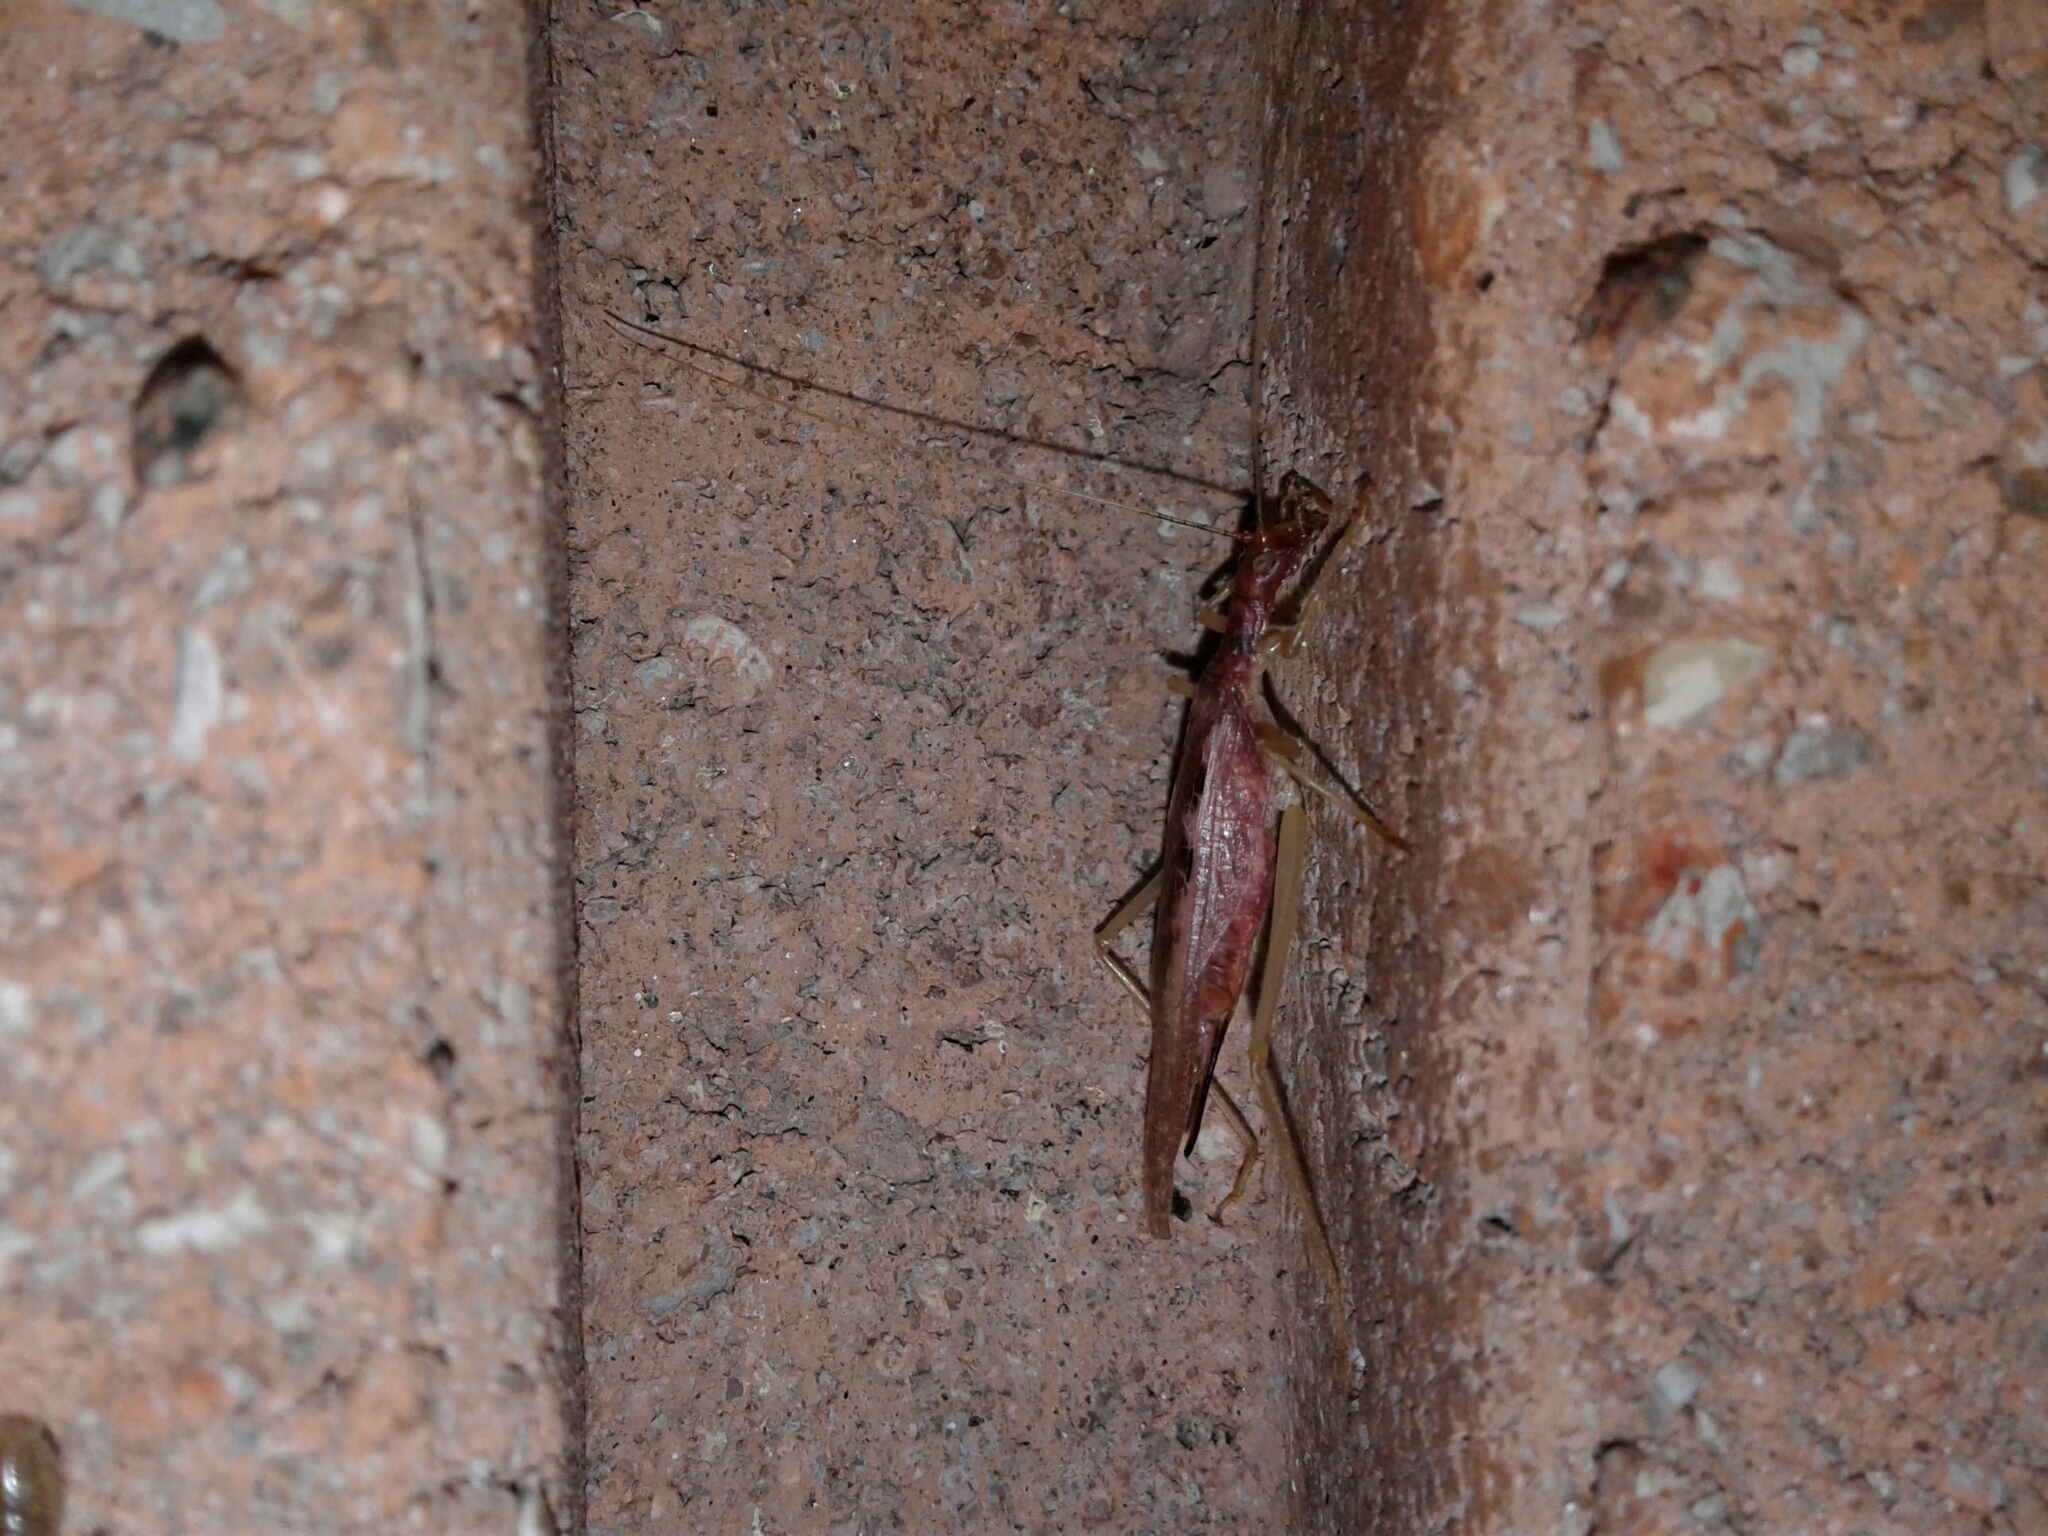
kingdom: Animalia
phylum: Arthropoda
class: Insecta
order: Orthoptera
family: Gryllidae
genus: Neoxabea
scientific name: Neoxabea bipunctata
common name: Two-spotted tree cricket
